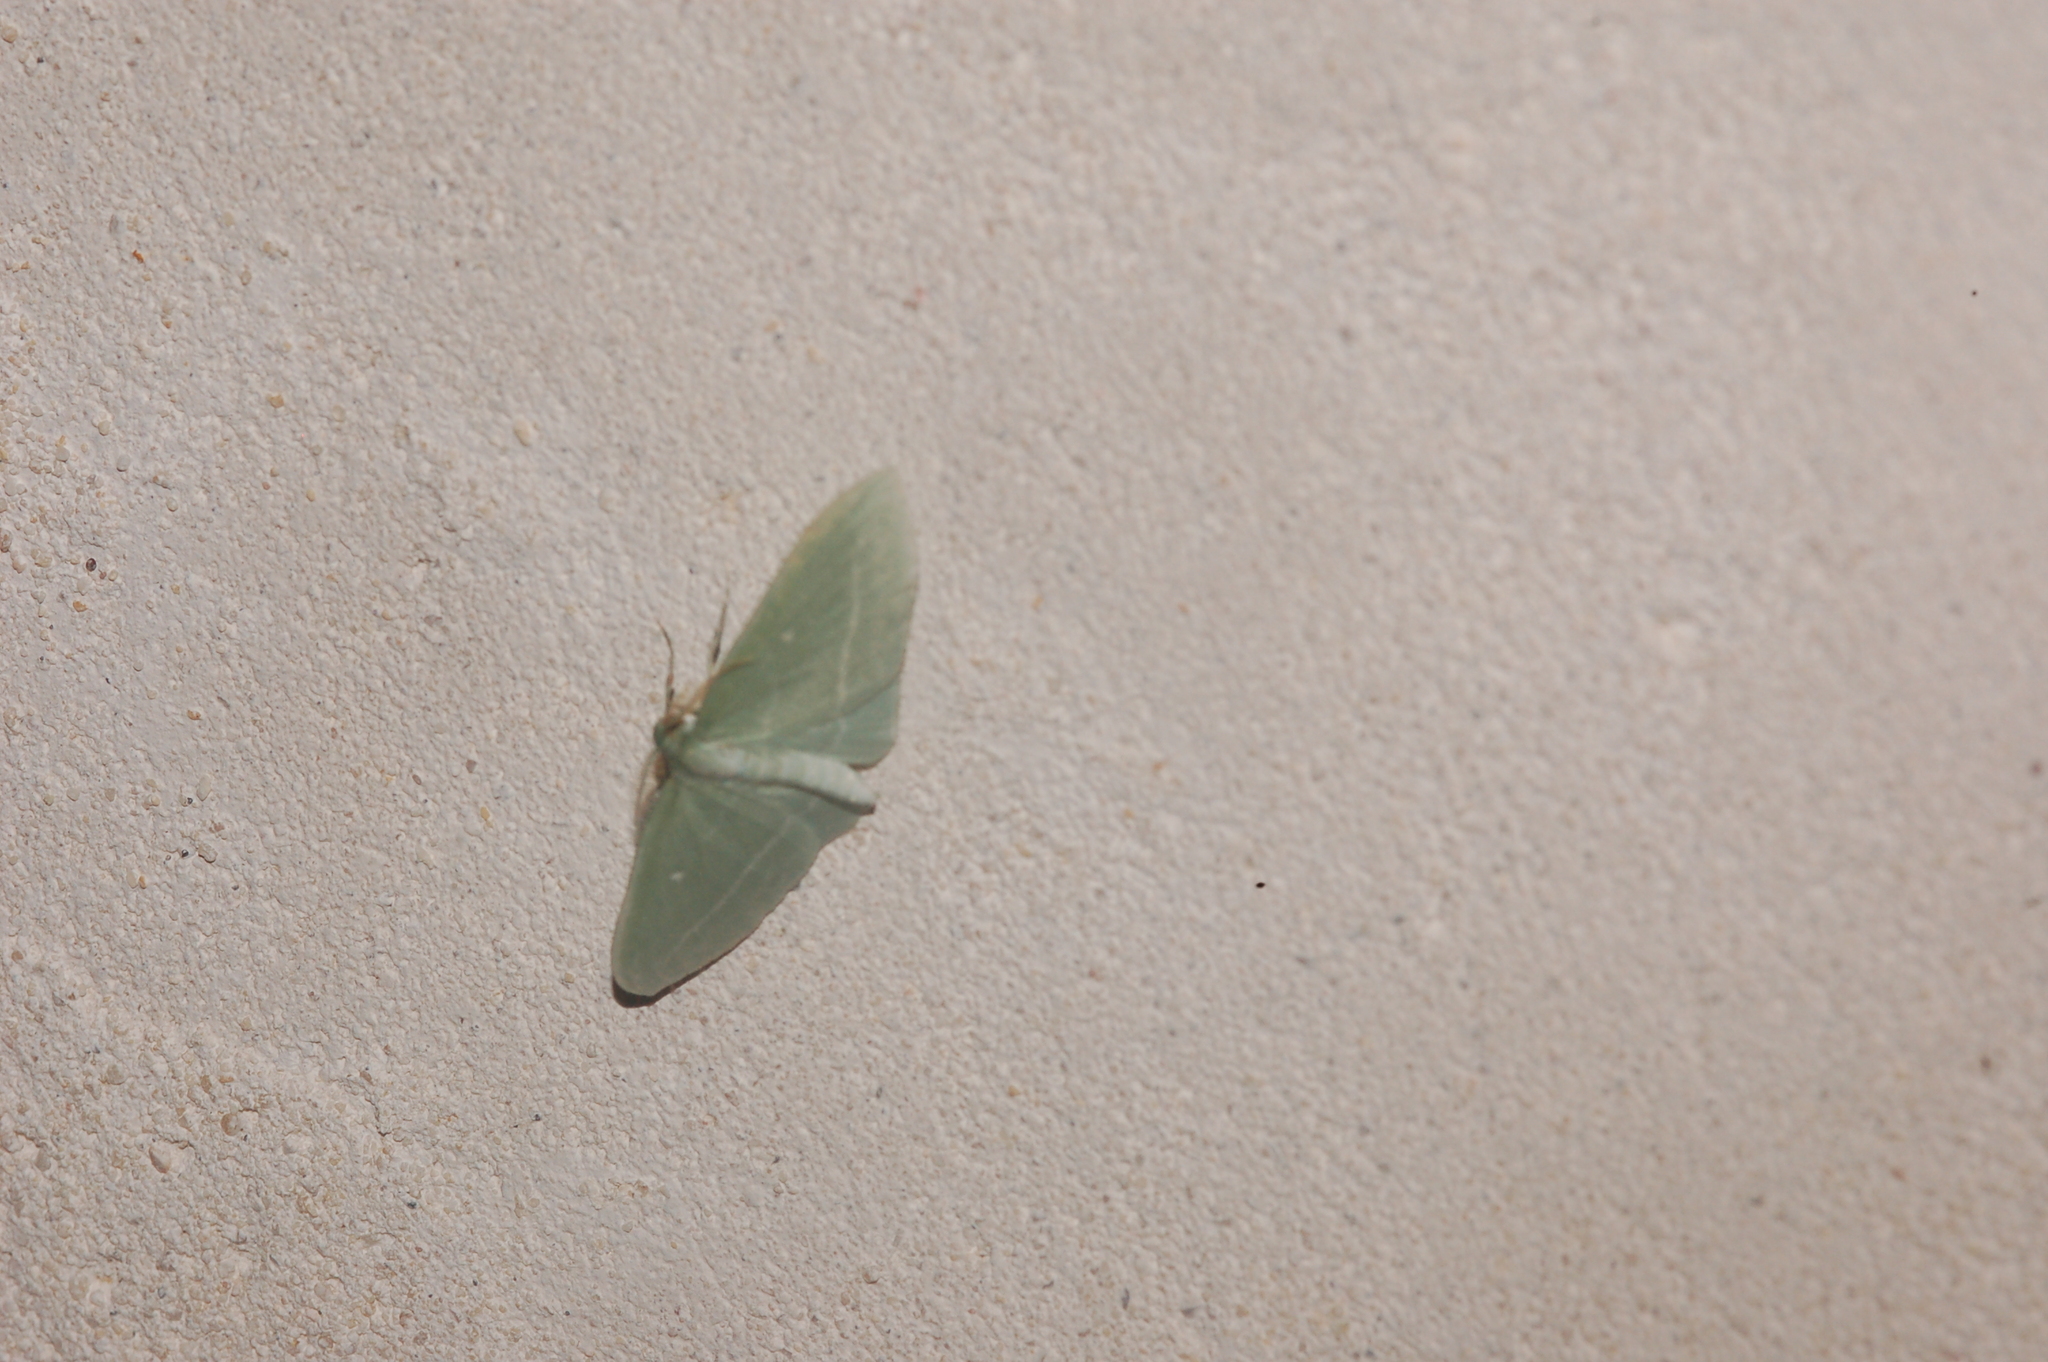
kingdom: Animalia
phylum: Arthropoda
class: Insecta
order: Lepidoptera
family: Geometridae
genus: Dyspteris
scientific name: Dyspteris abortivaria
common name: Bad-wing
